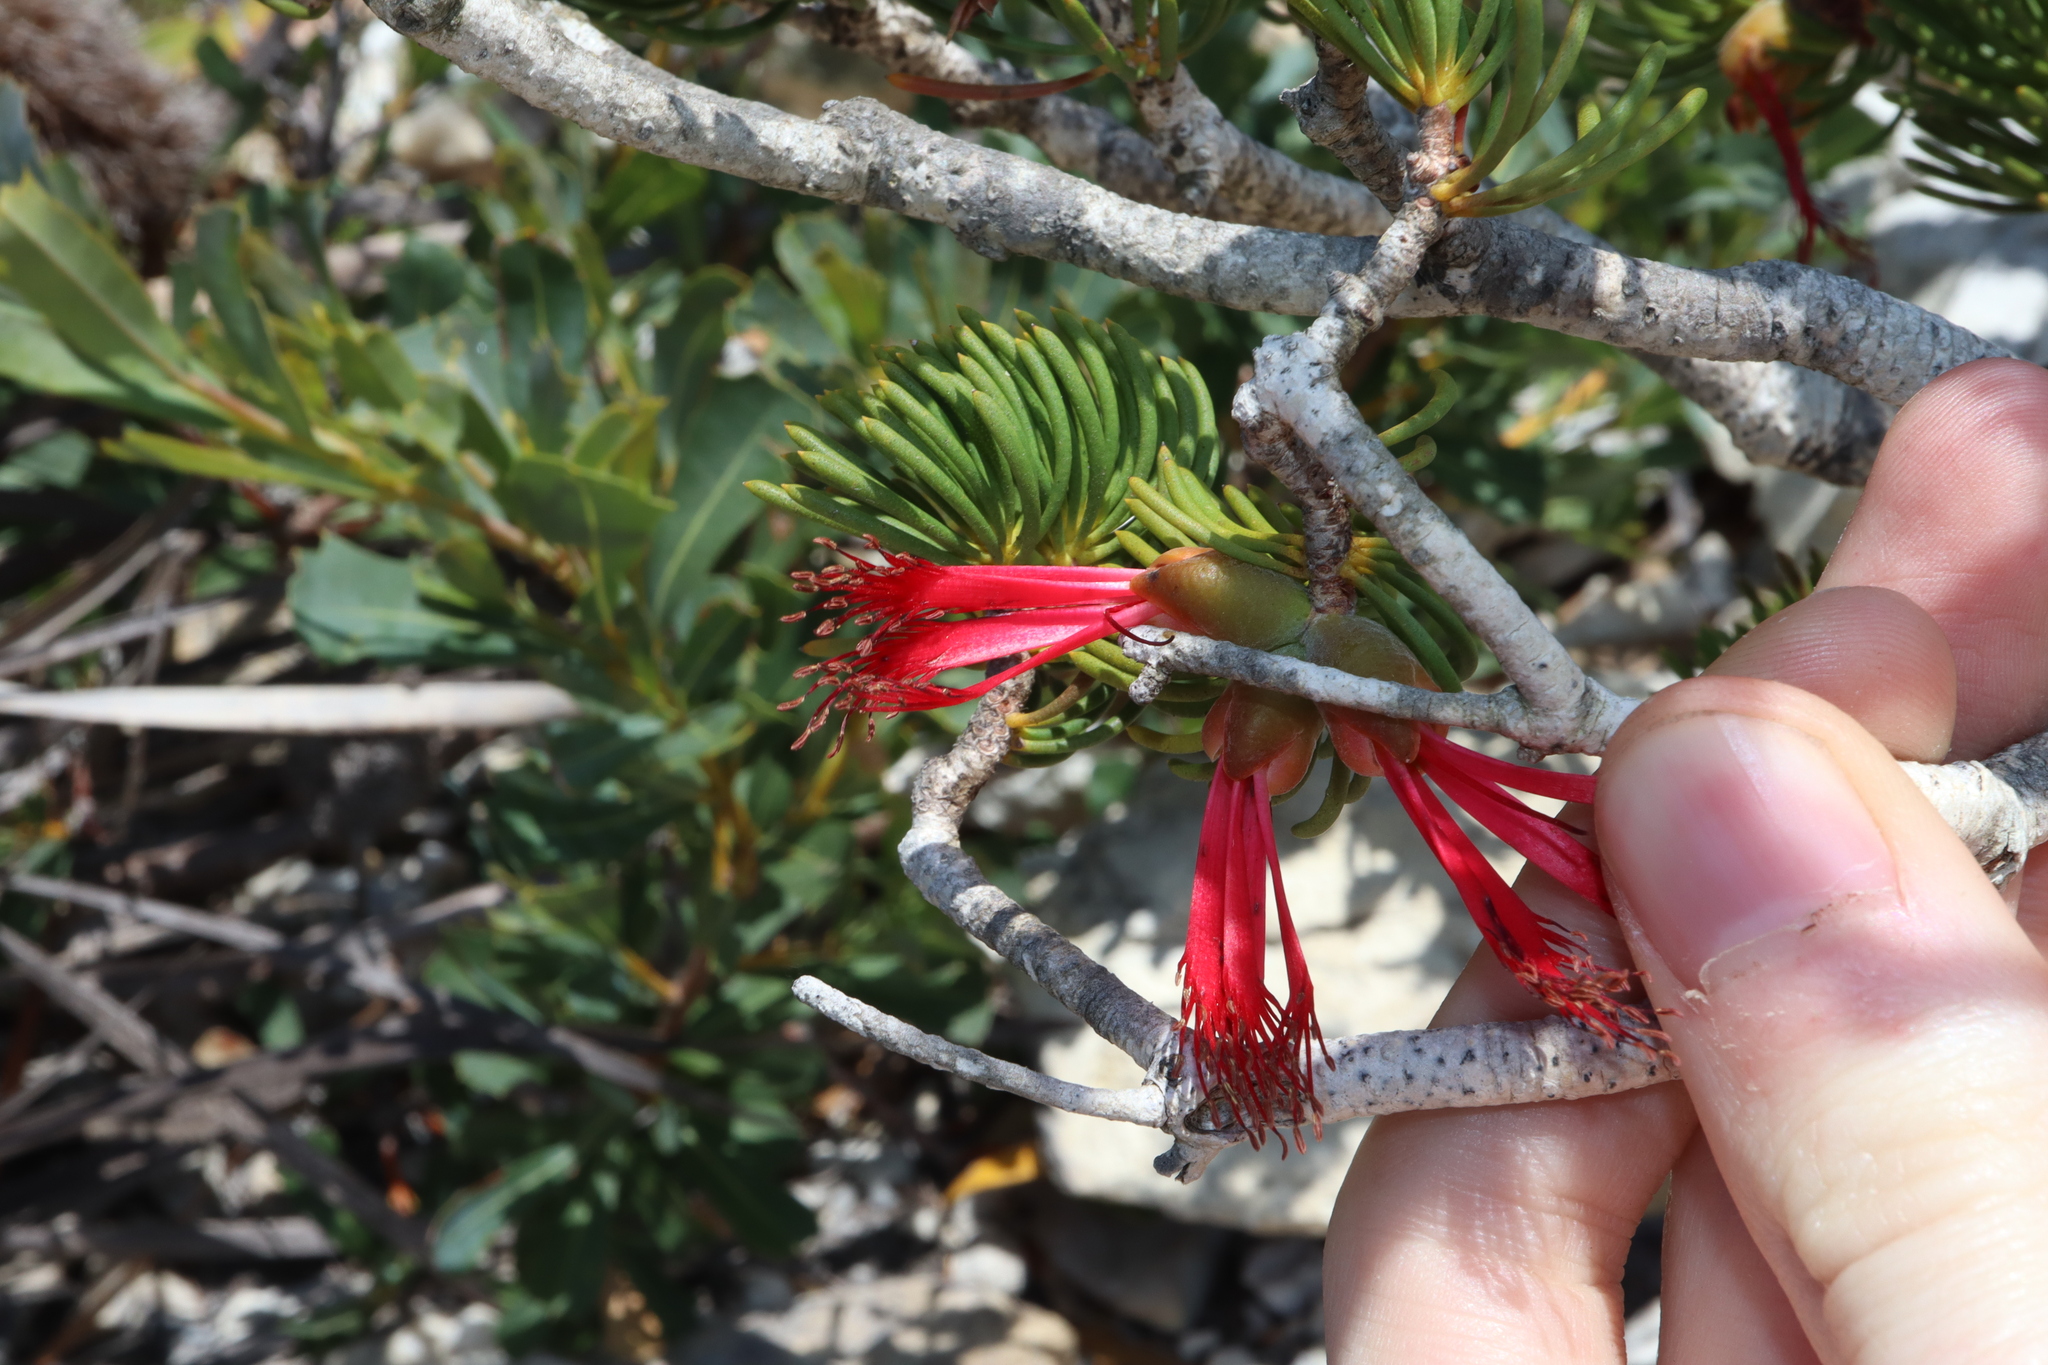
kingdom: Plantae
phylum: Tracheophyta
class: Magnoliopsida
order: Myrtales
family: Myrtaceae
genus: Melaleuca
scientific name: Melaleuca valida
